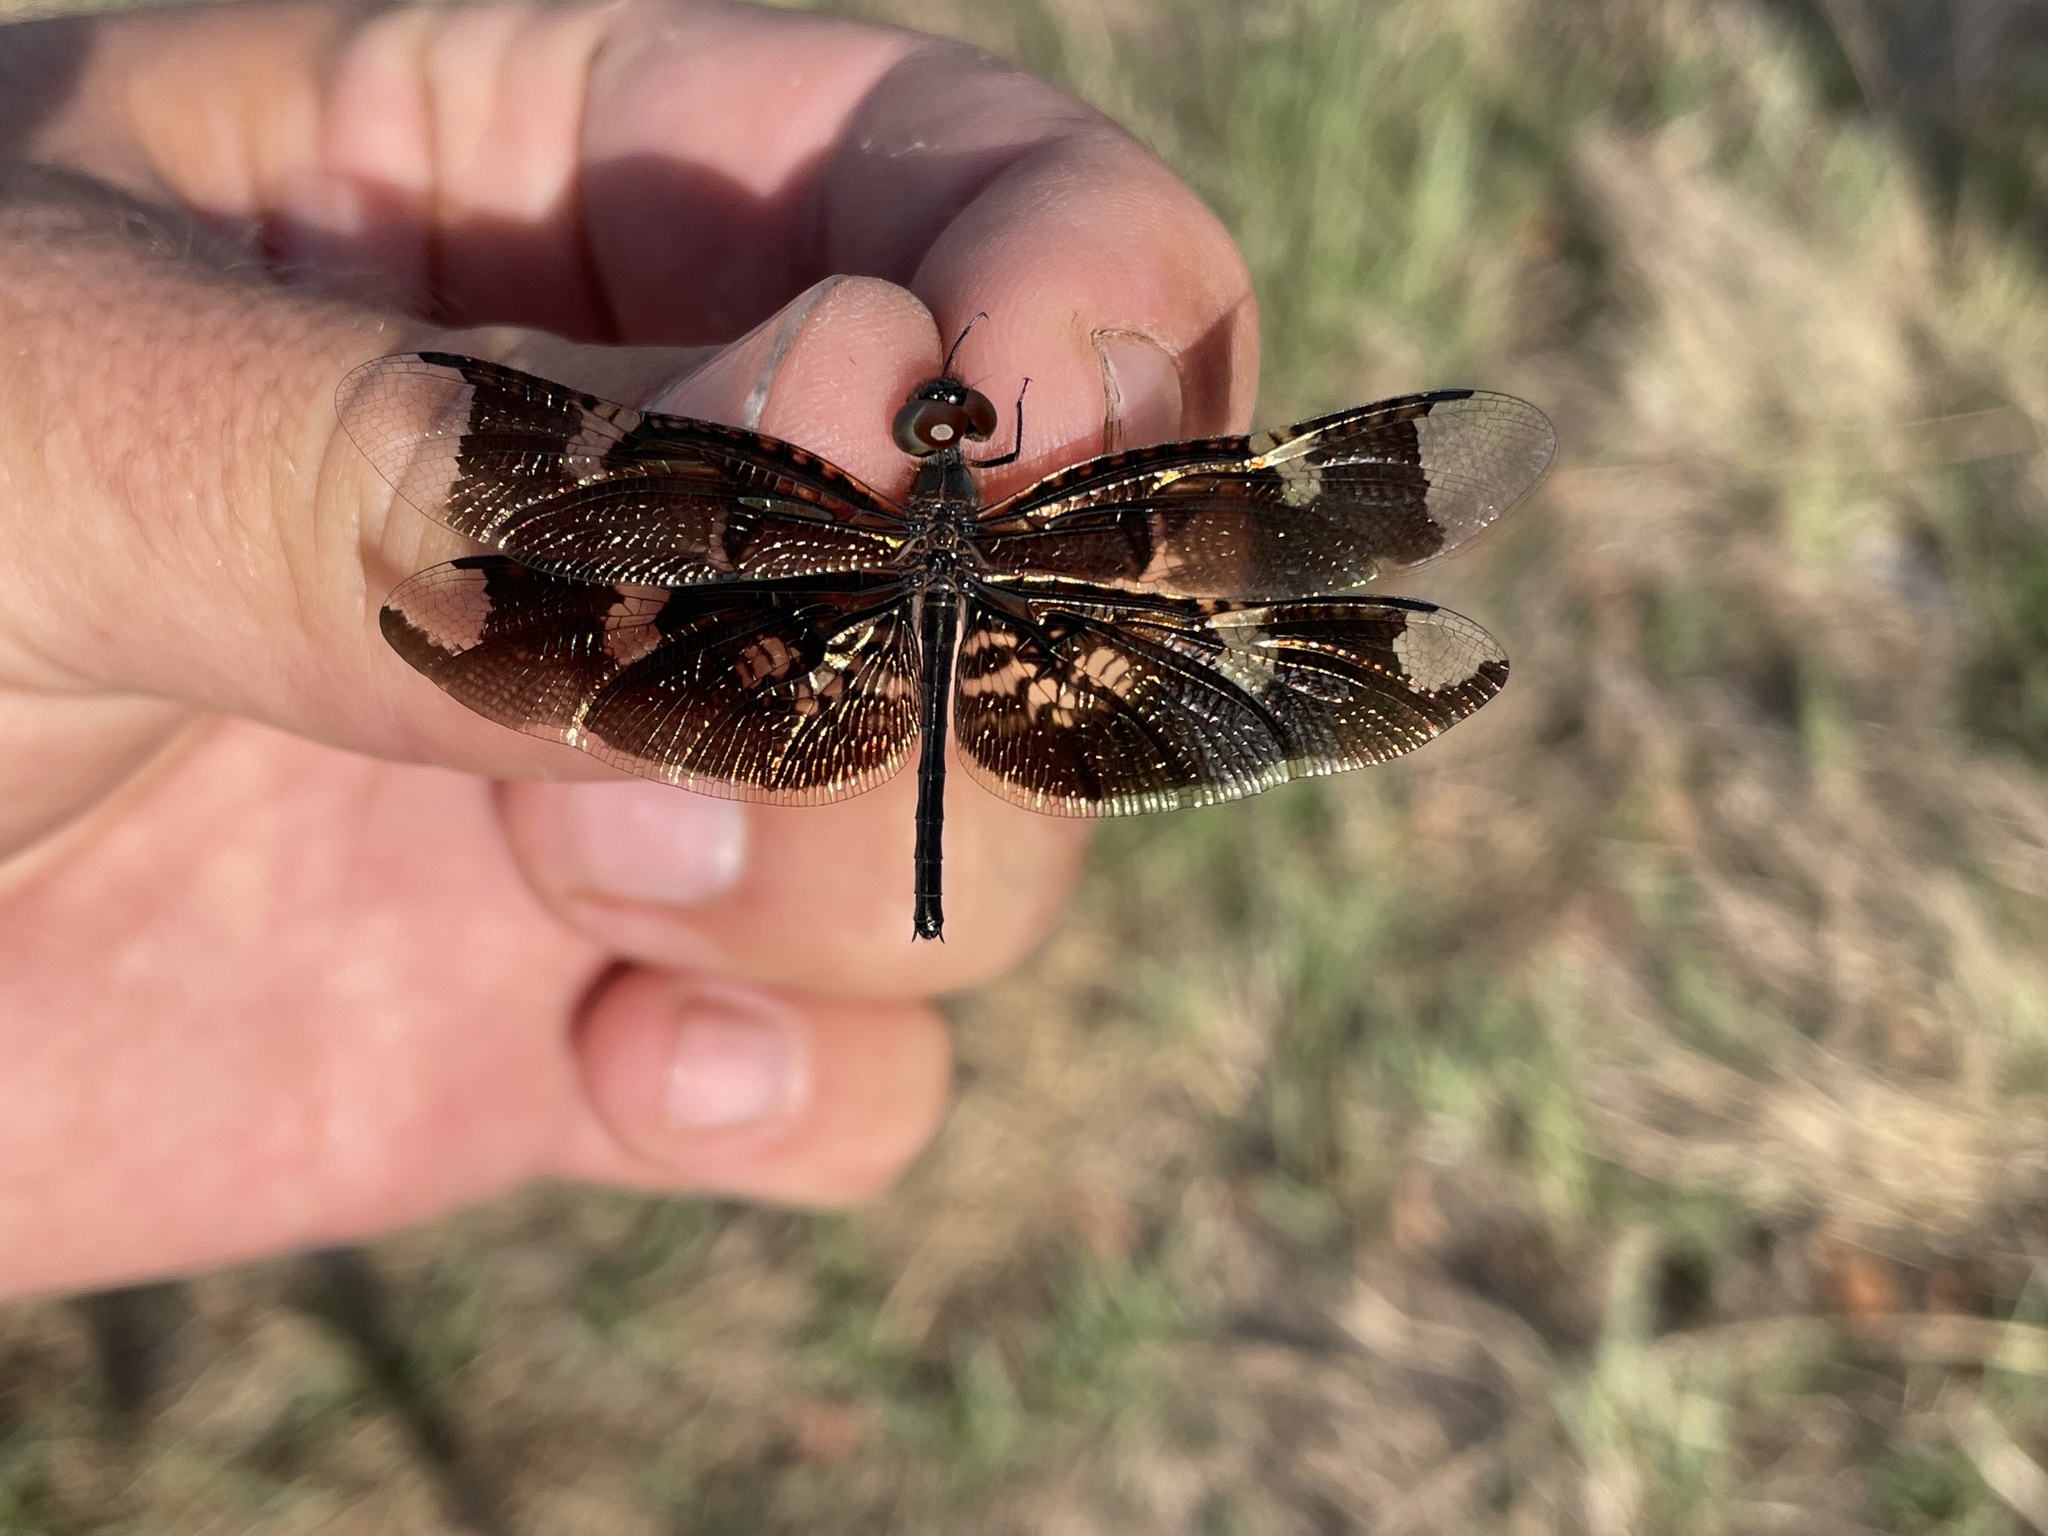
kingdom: Animalia
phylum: Arthropoda
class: Insecta
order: Odonata
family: Libellulidae
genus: Rhyothemis
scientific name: Rhyothemis fenestrina
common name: Skylight flutterer
